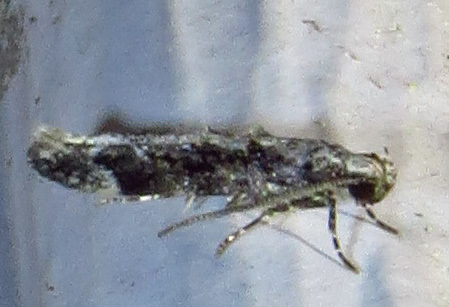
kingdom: Animalia
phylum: Arthropoda
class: Insecta
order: Lepidoptera
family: Gelechiidae
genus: Coleotechnites
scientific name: Coleotechnites florae
